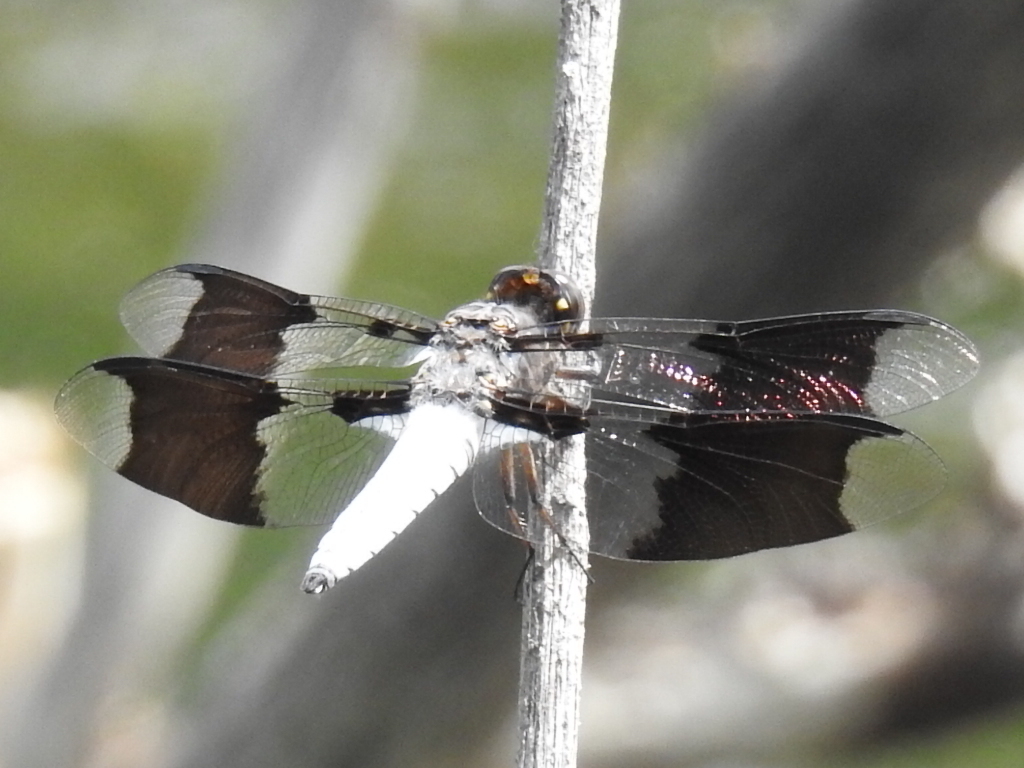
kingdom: Animalia
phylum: Arthropoda
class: Insecta
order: Odonata
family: Libellulidae
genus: Plathemis
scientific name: Plathemis lydia
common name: Common whitetail
